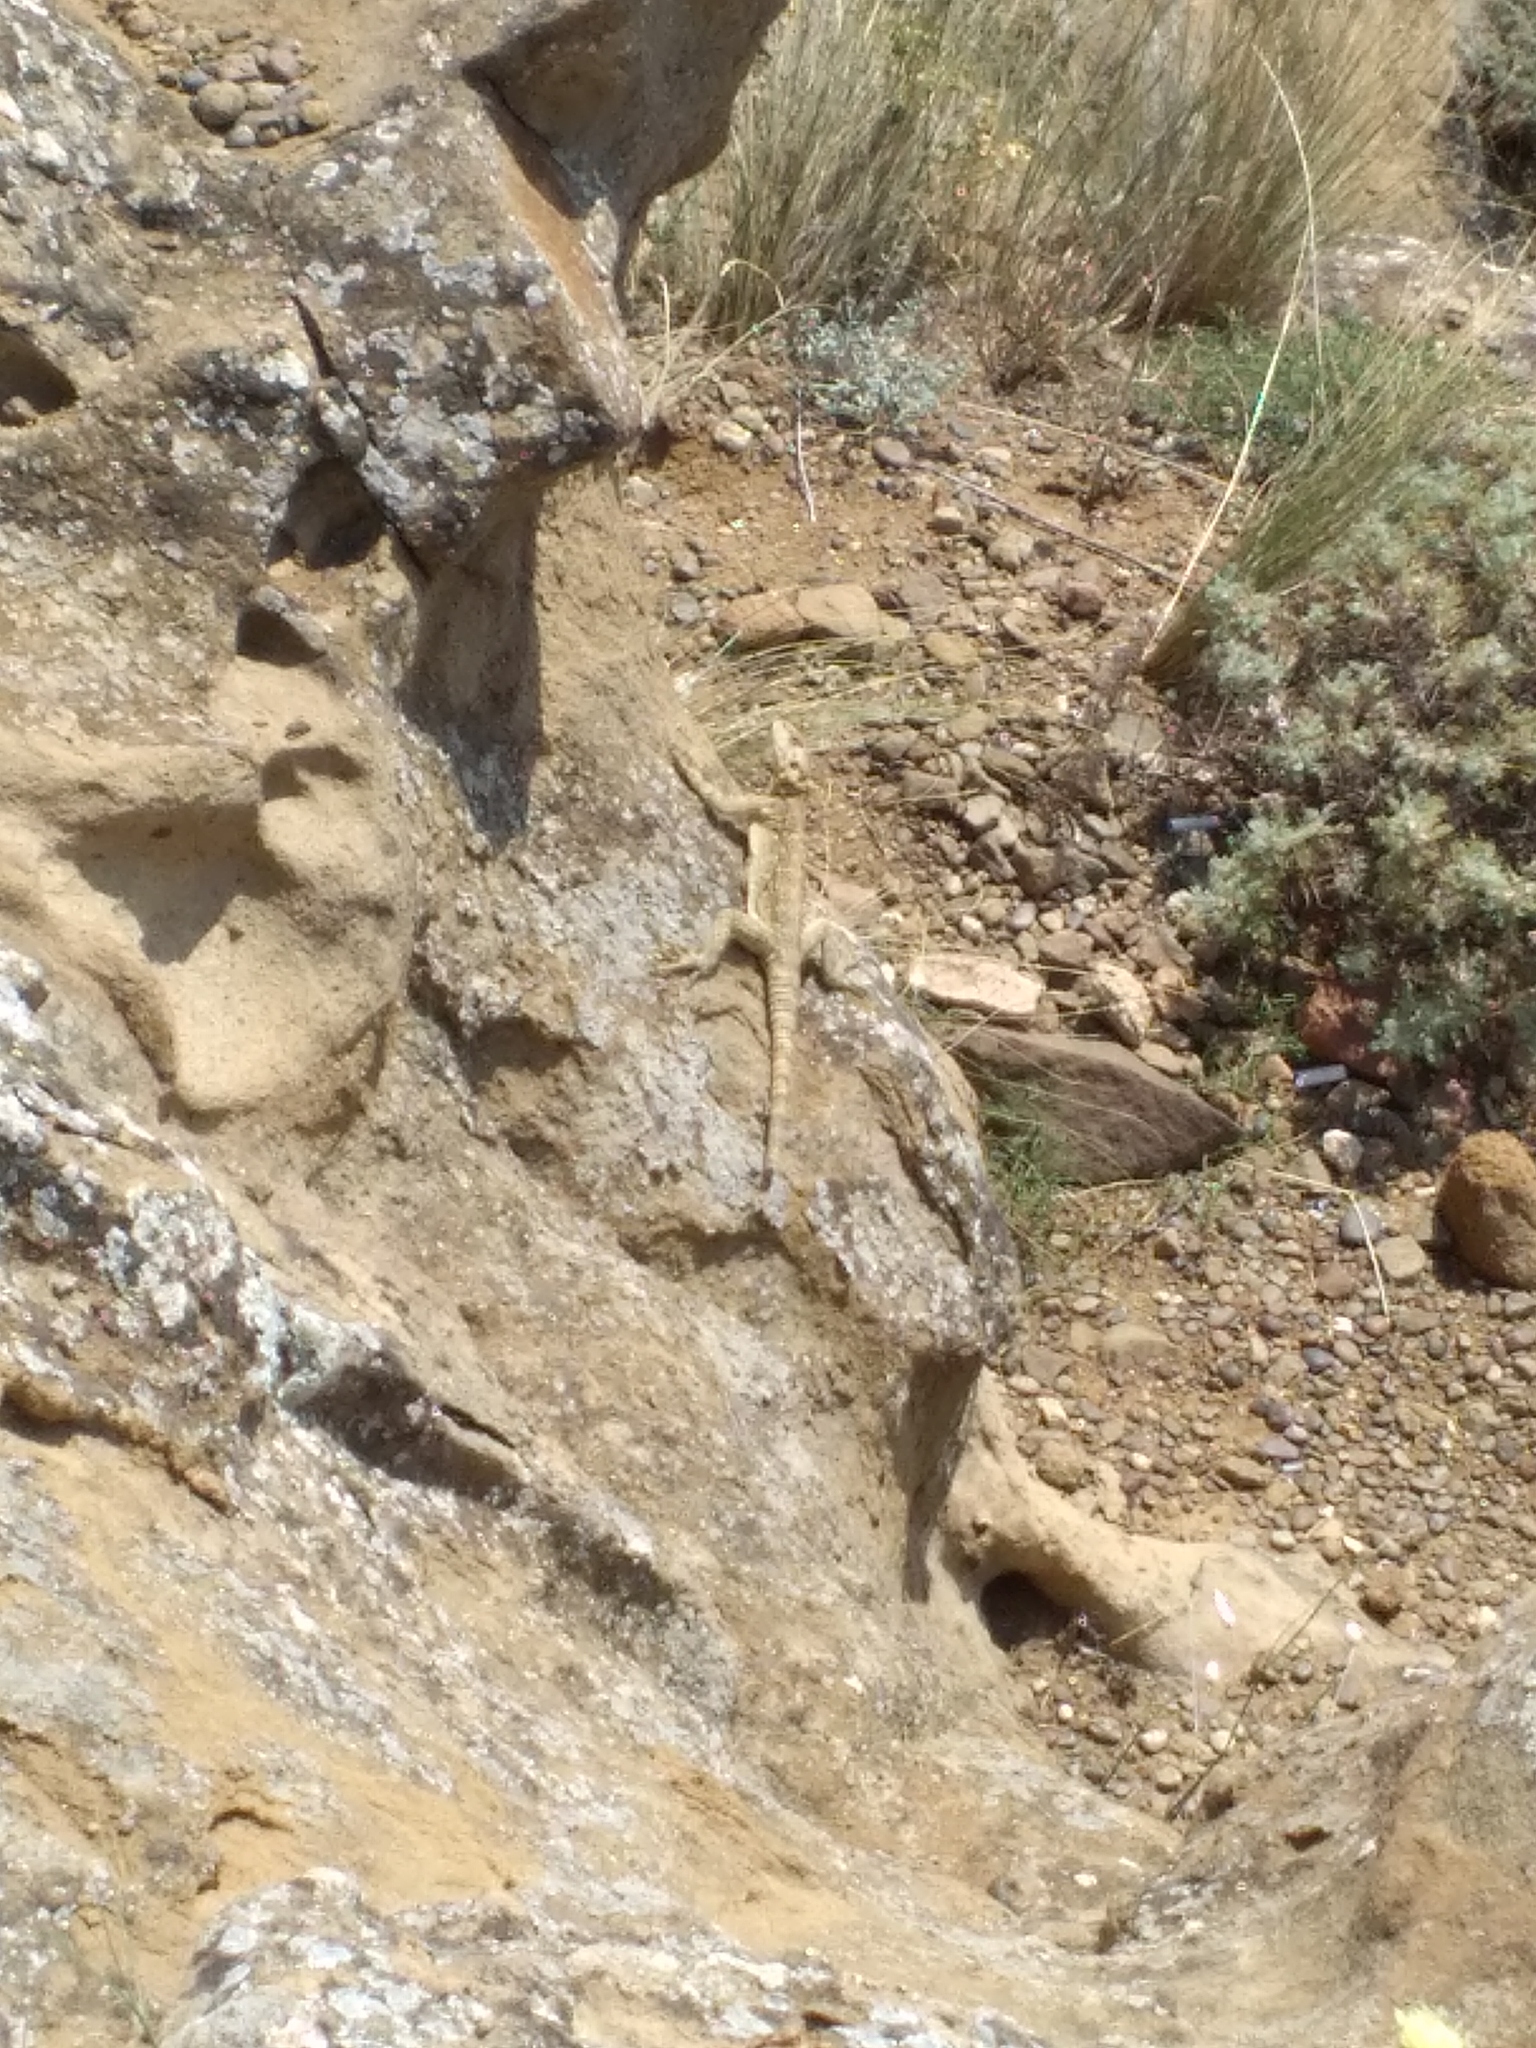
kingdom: Animalia
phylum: Chordata
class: Squamata
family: Agamidae
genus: Paralaudakia
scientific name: Paralaudakia caucasia
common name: Caucasian agama
